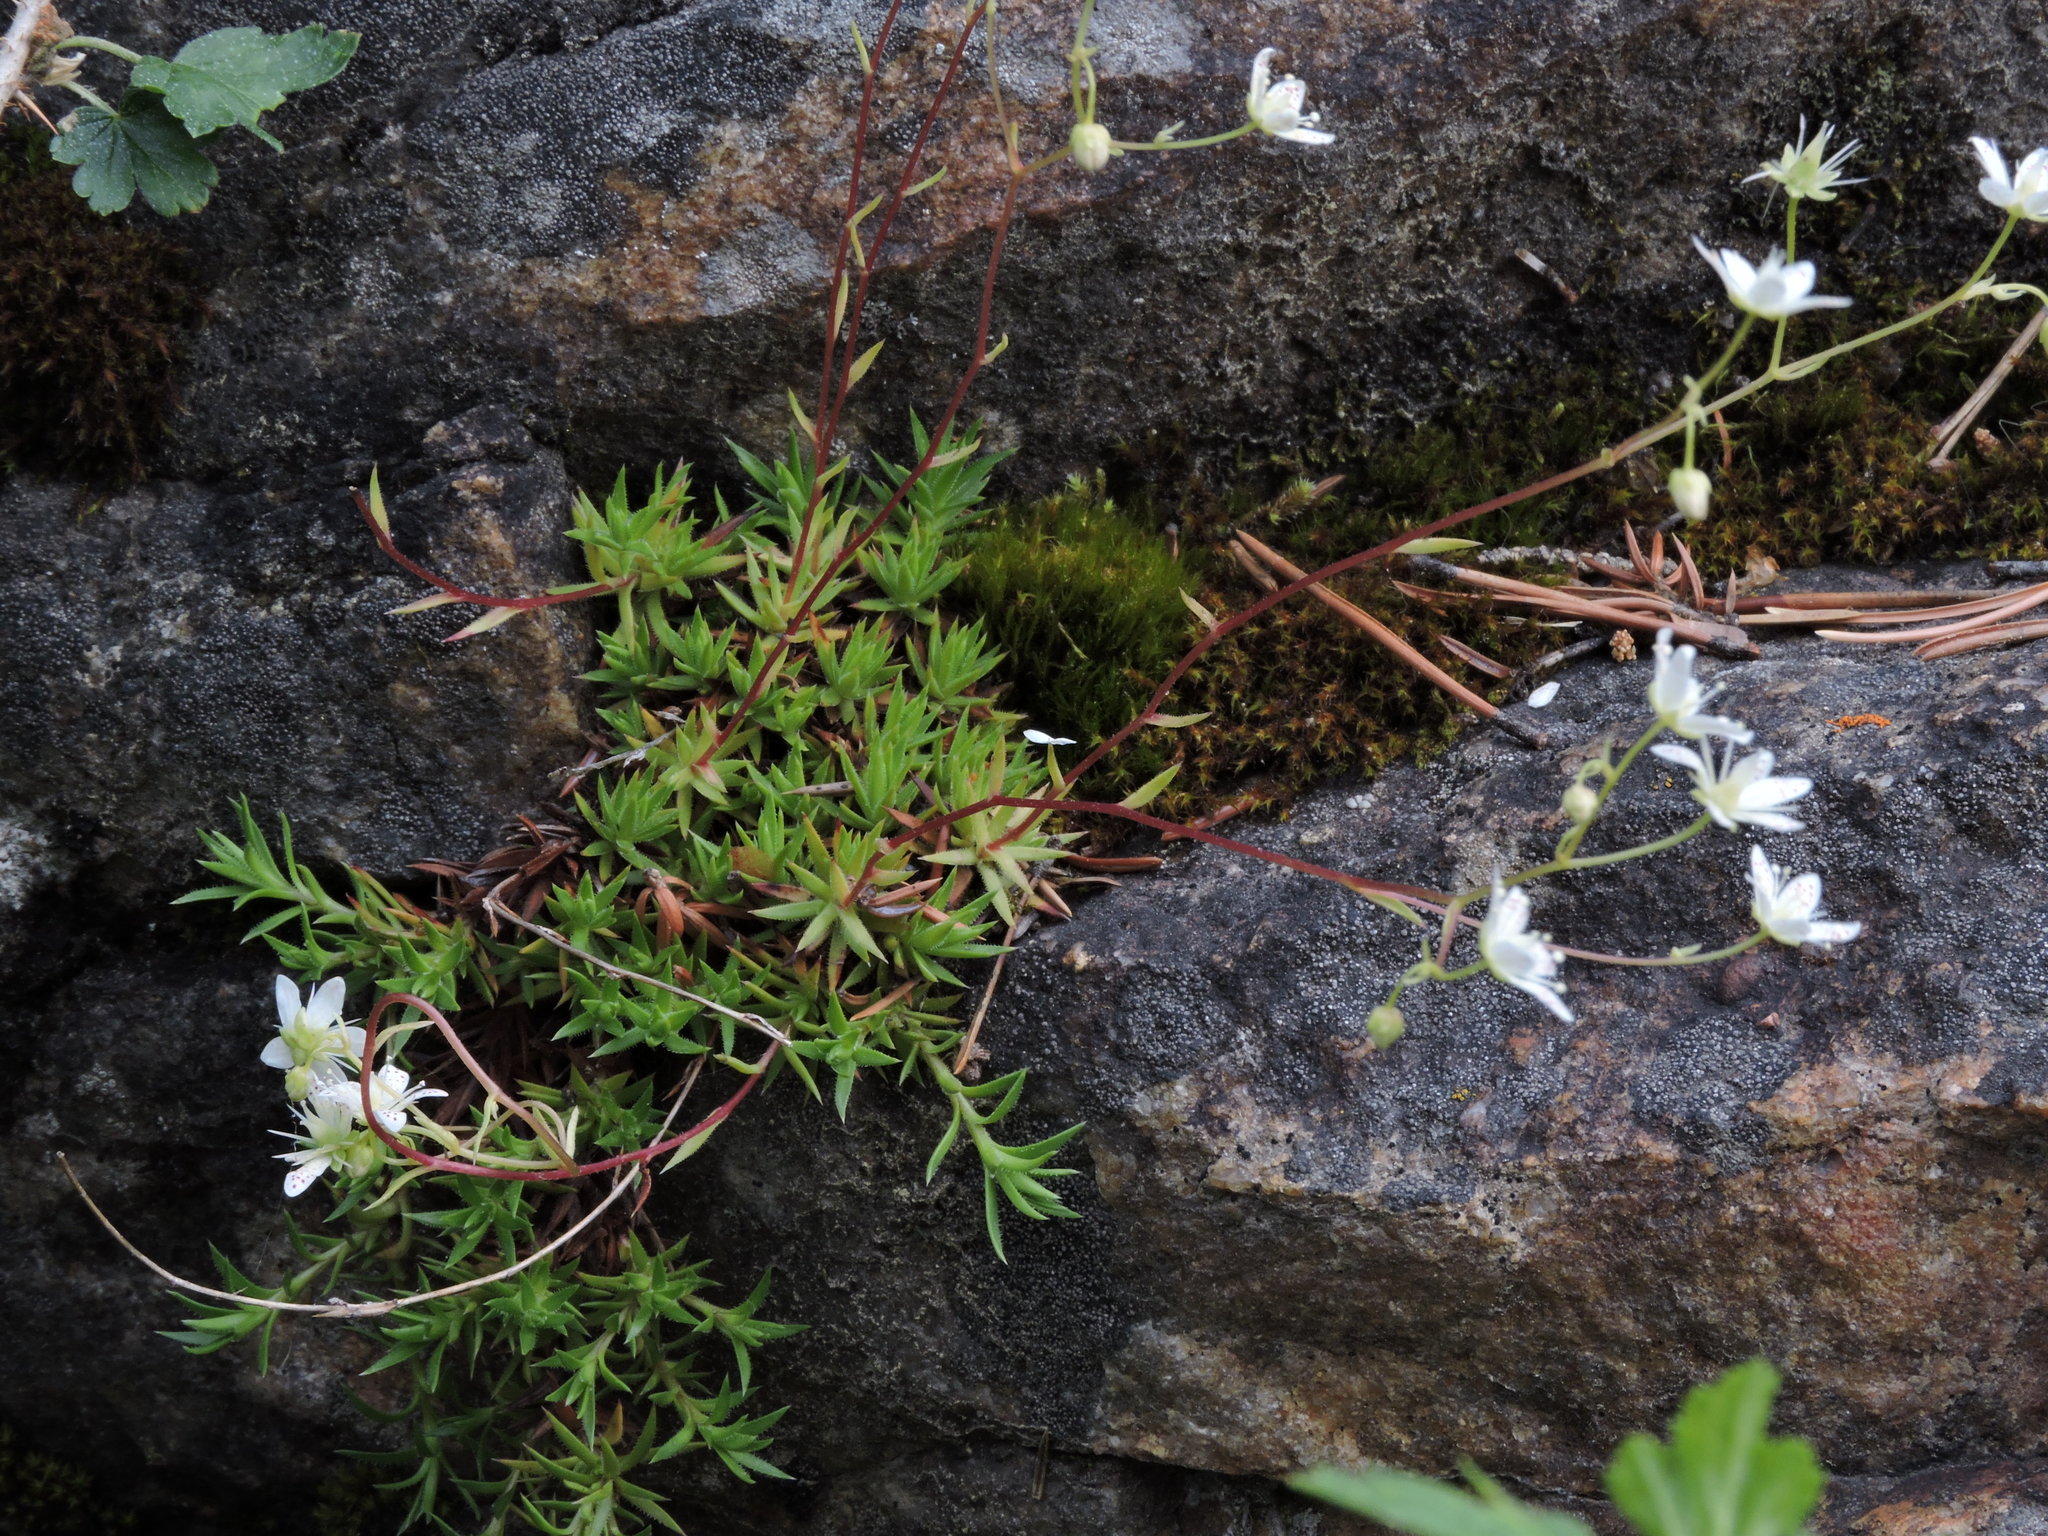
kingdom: Plantae
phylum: Tracheophyta
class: Magnoliopsida
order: Saxifragales
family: Saxifragaceae
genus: Saxifraga
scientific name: Saxifraga bronchialis
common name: Matted saxifrage
